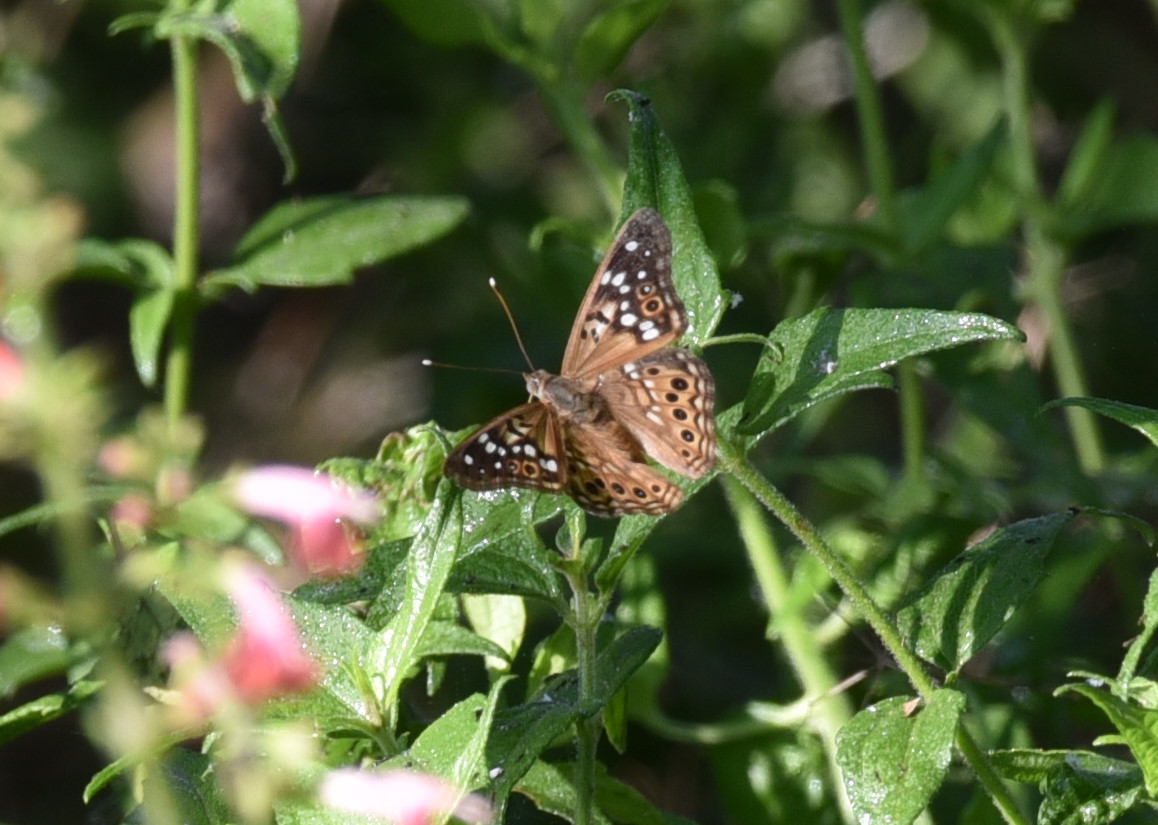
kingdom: Animalia
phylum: Arthropoda
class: Insecta
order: Lepidoptera
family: Nymphalidae
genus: Asterocampa
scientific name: Asterocampa celtis
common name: Hackberry emperor
